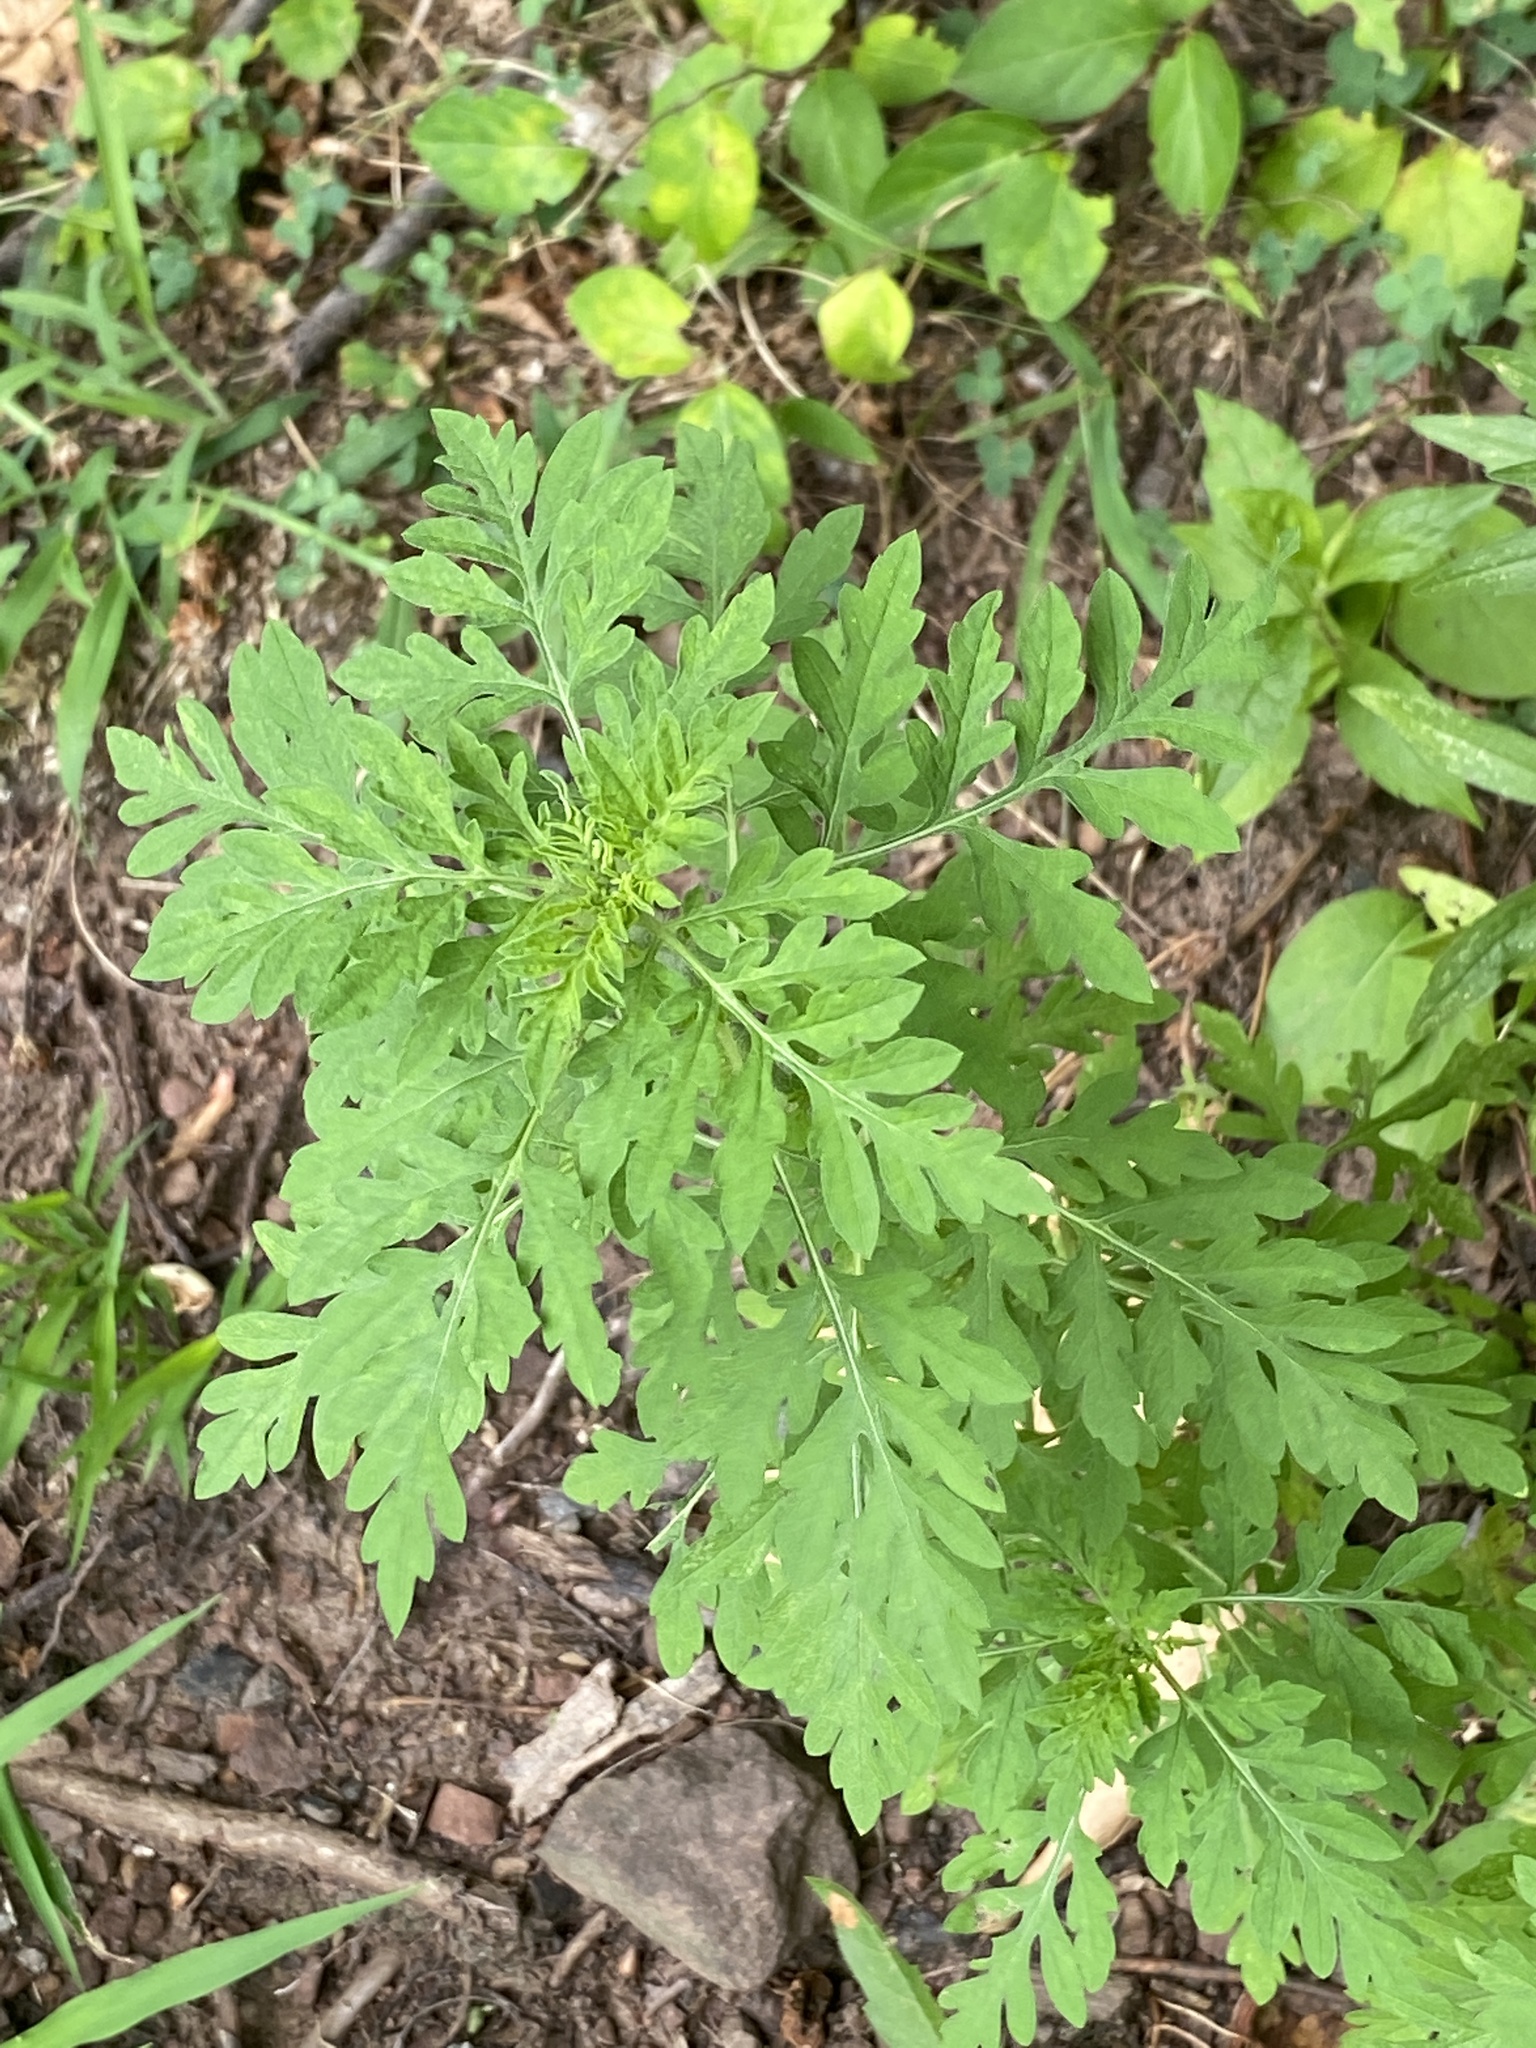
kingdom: Plantae
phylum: Tracheophyta
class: Magnoliopsida
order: Asterales
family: Asteraceae
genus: Ambrosia
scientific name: Ambrosia artemisiifolia
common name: Annual ragweed
